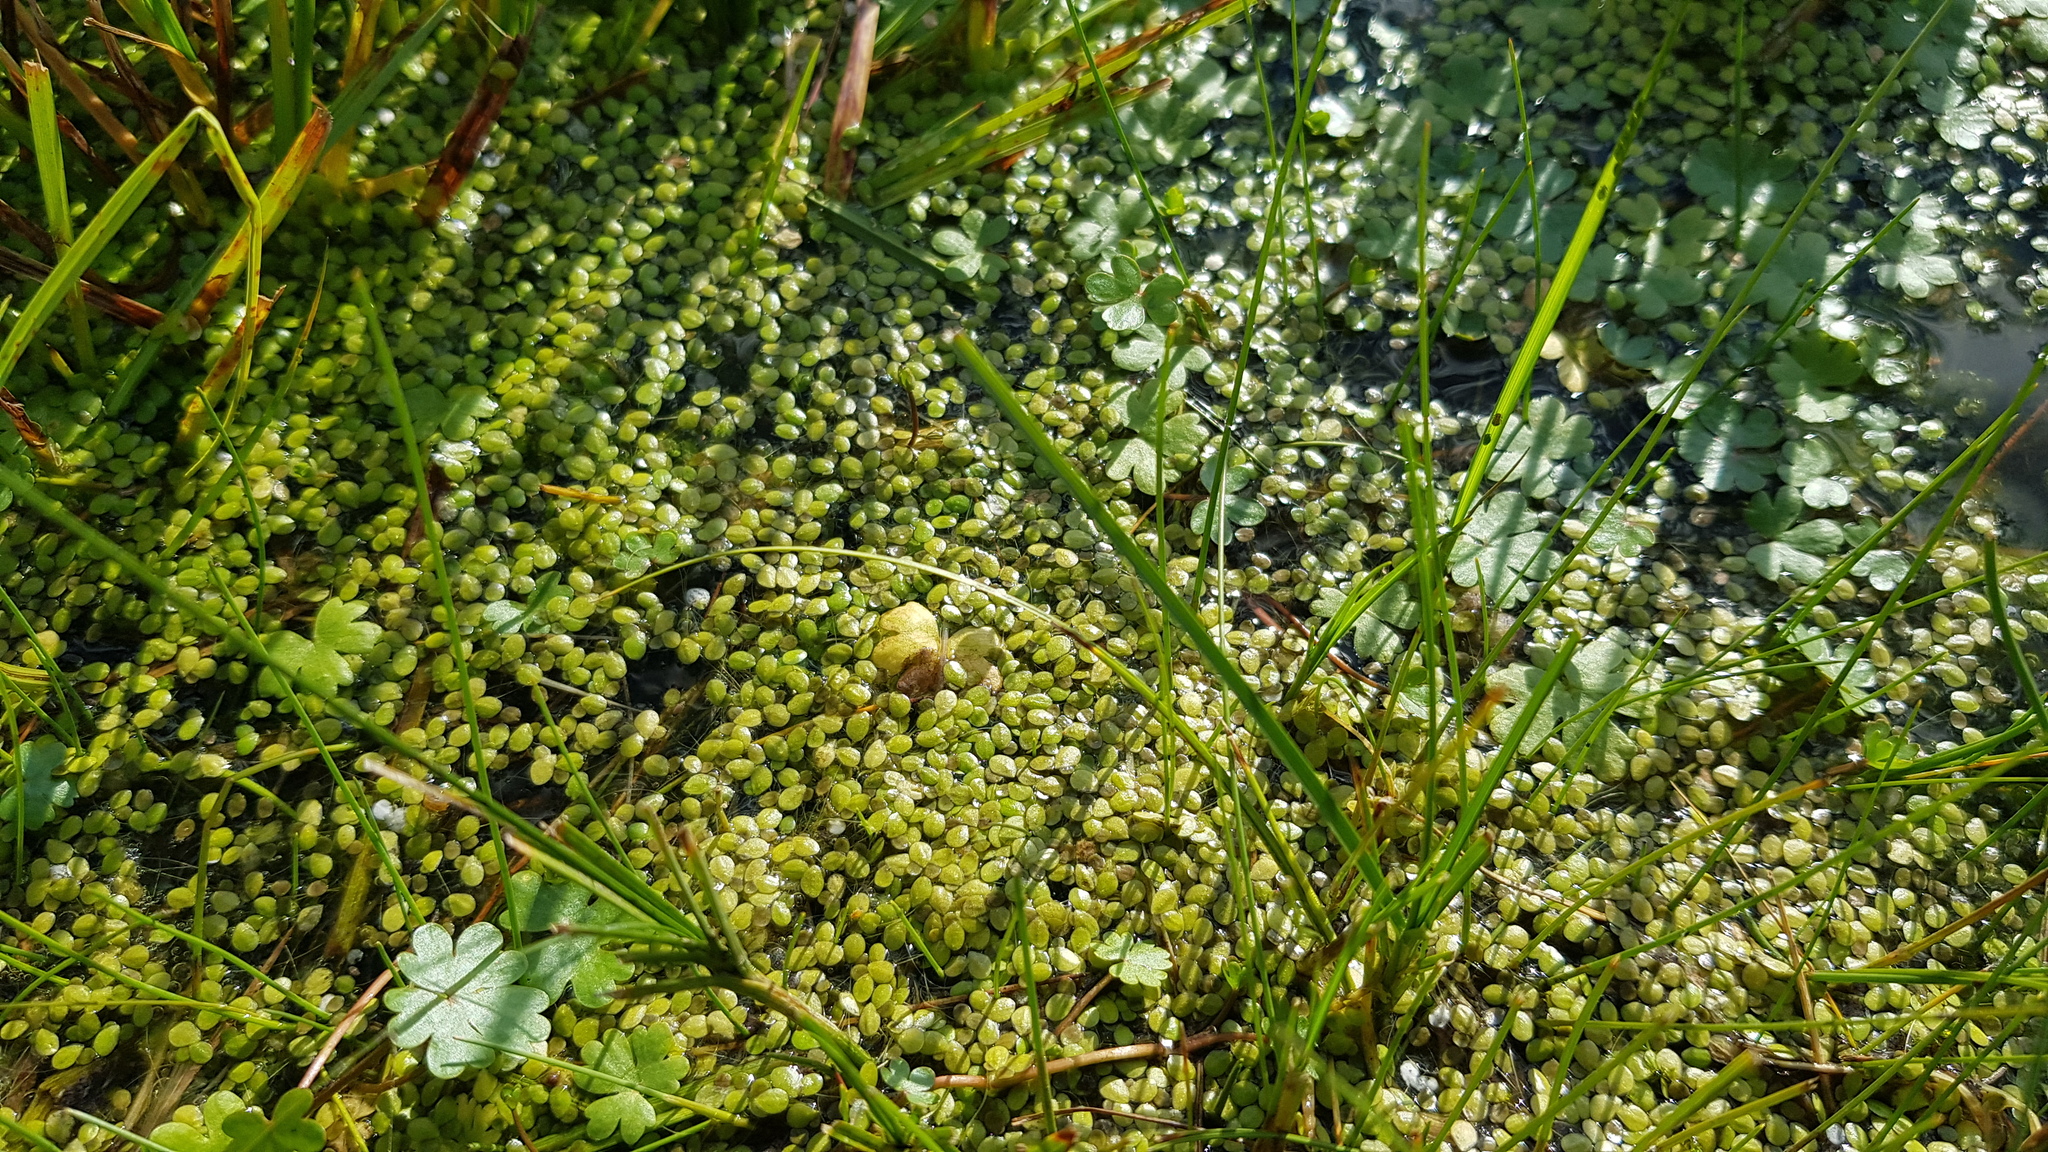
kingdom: Plantae
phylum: Tracheophyta
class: Liliopsida
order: Alismatales
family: Araceae
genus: Lemna
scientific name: Lemna minor
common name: Common duckweed
